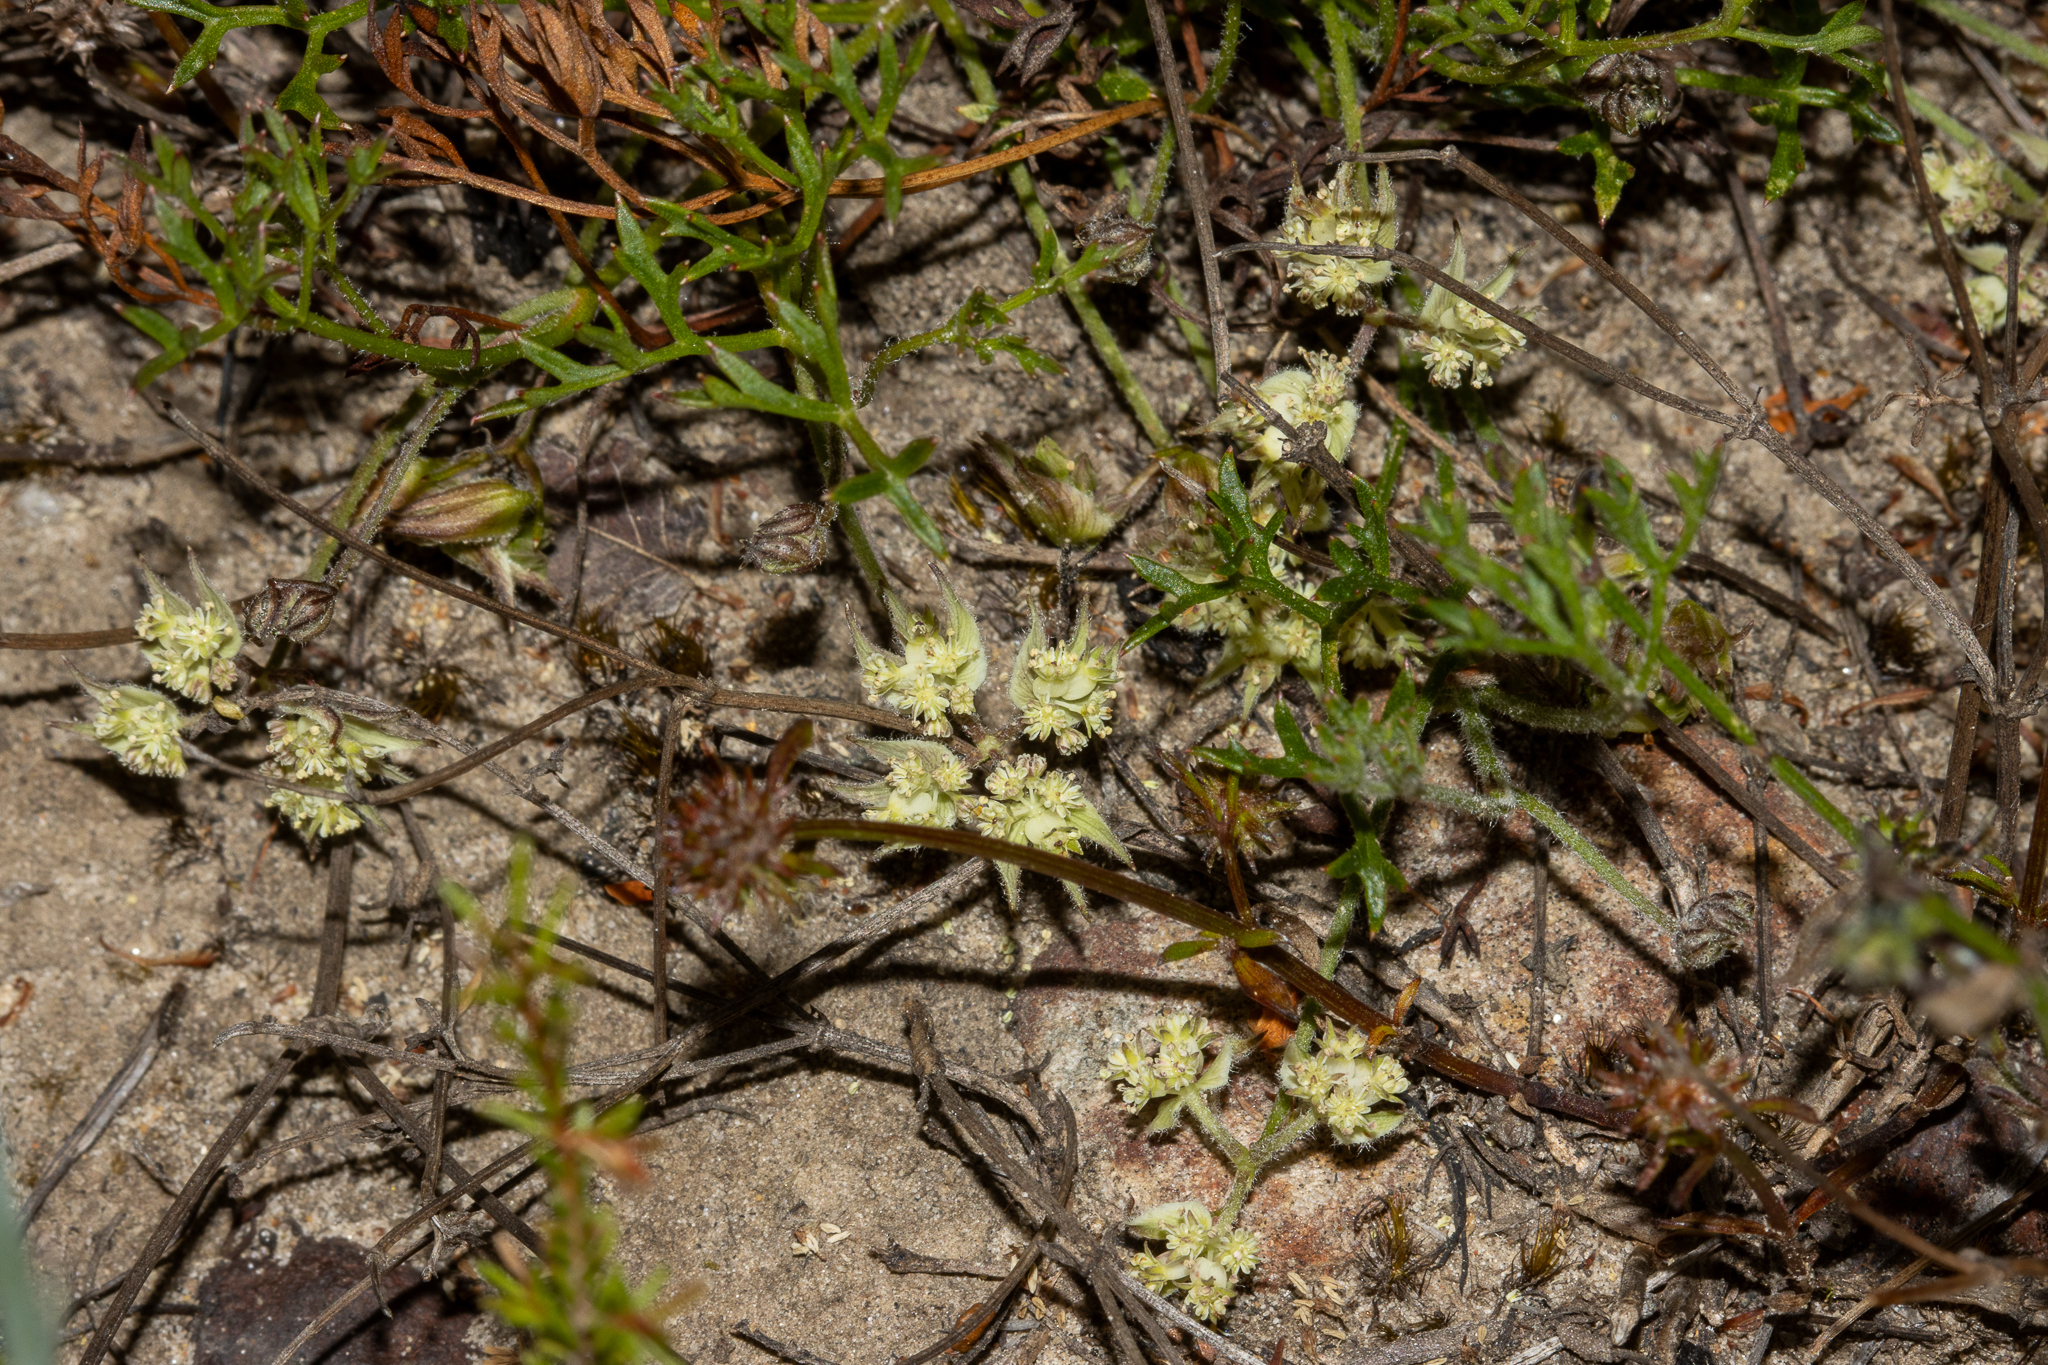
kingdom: Plantae
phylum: Tracheophyta
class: Magnoliopsida
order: Apiales
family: Apiaceae
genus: Xanthosia
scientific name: Xanthosia leiophylla
